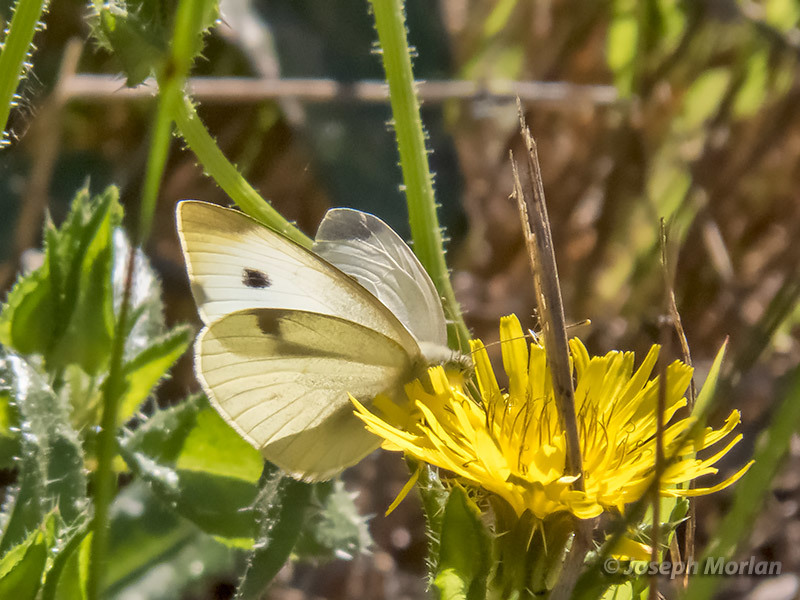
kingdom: Animalia
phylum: Arthropoda
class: Insecta
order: Lepidoptera
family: Pieridae
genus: Pieris
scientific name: Pieris rapae
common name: Small white
